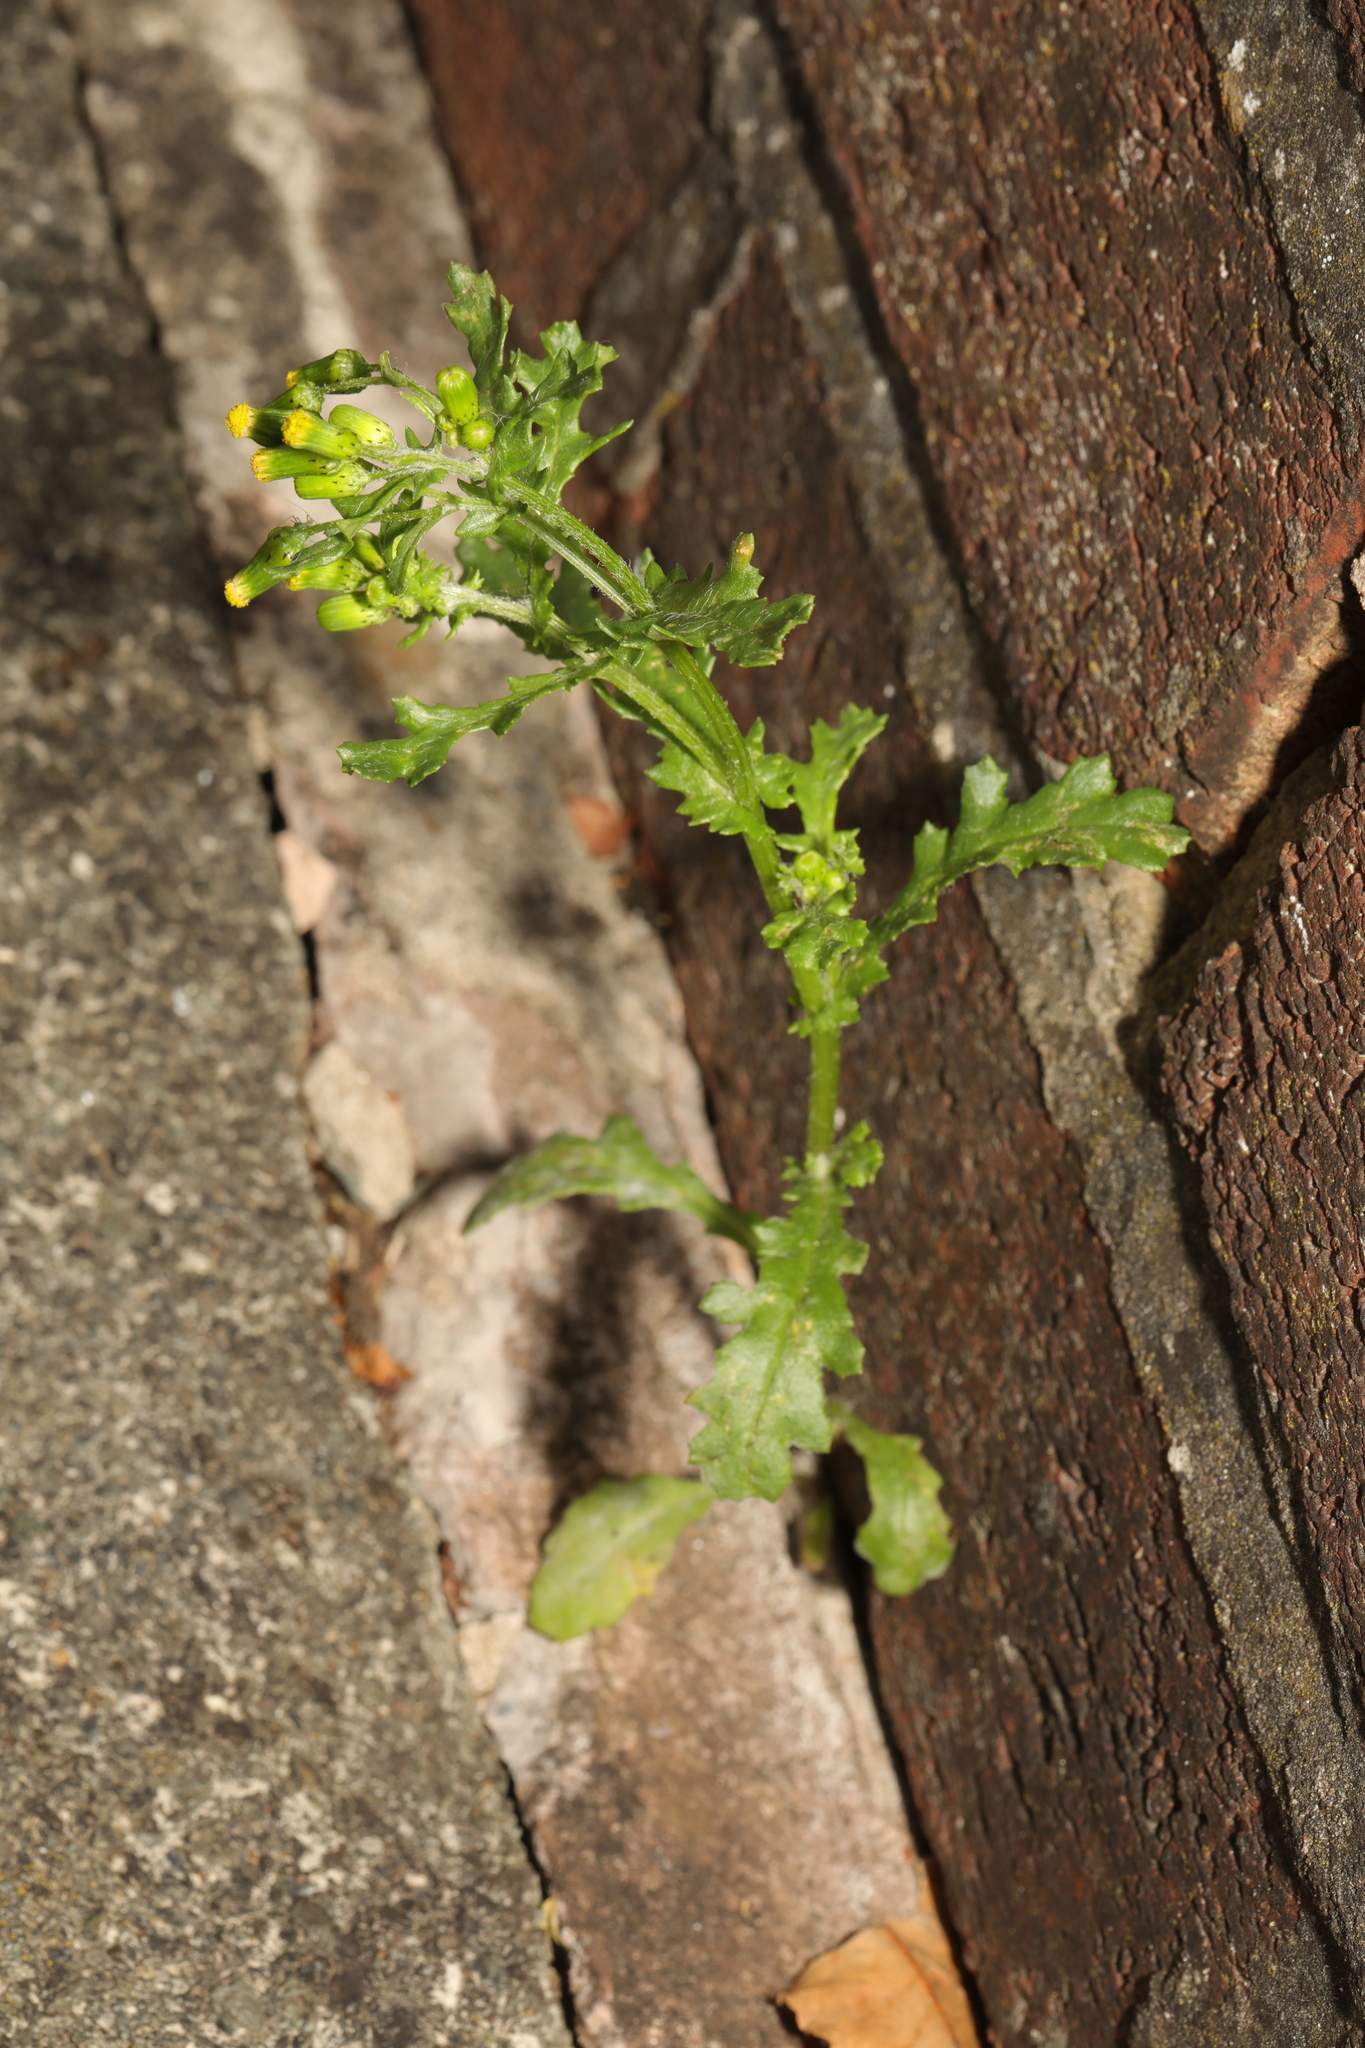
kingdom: Plantae
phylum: Tracheophyta
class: Magnoliopsida
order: Asterales
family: Asteraceae
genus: Senecio
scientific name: Senecio vulgaris
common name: Old-man-in-the-spring
